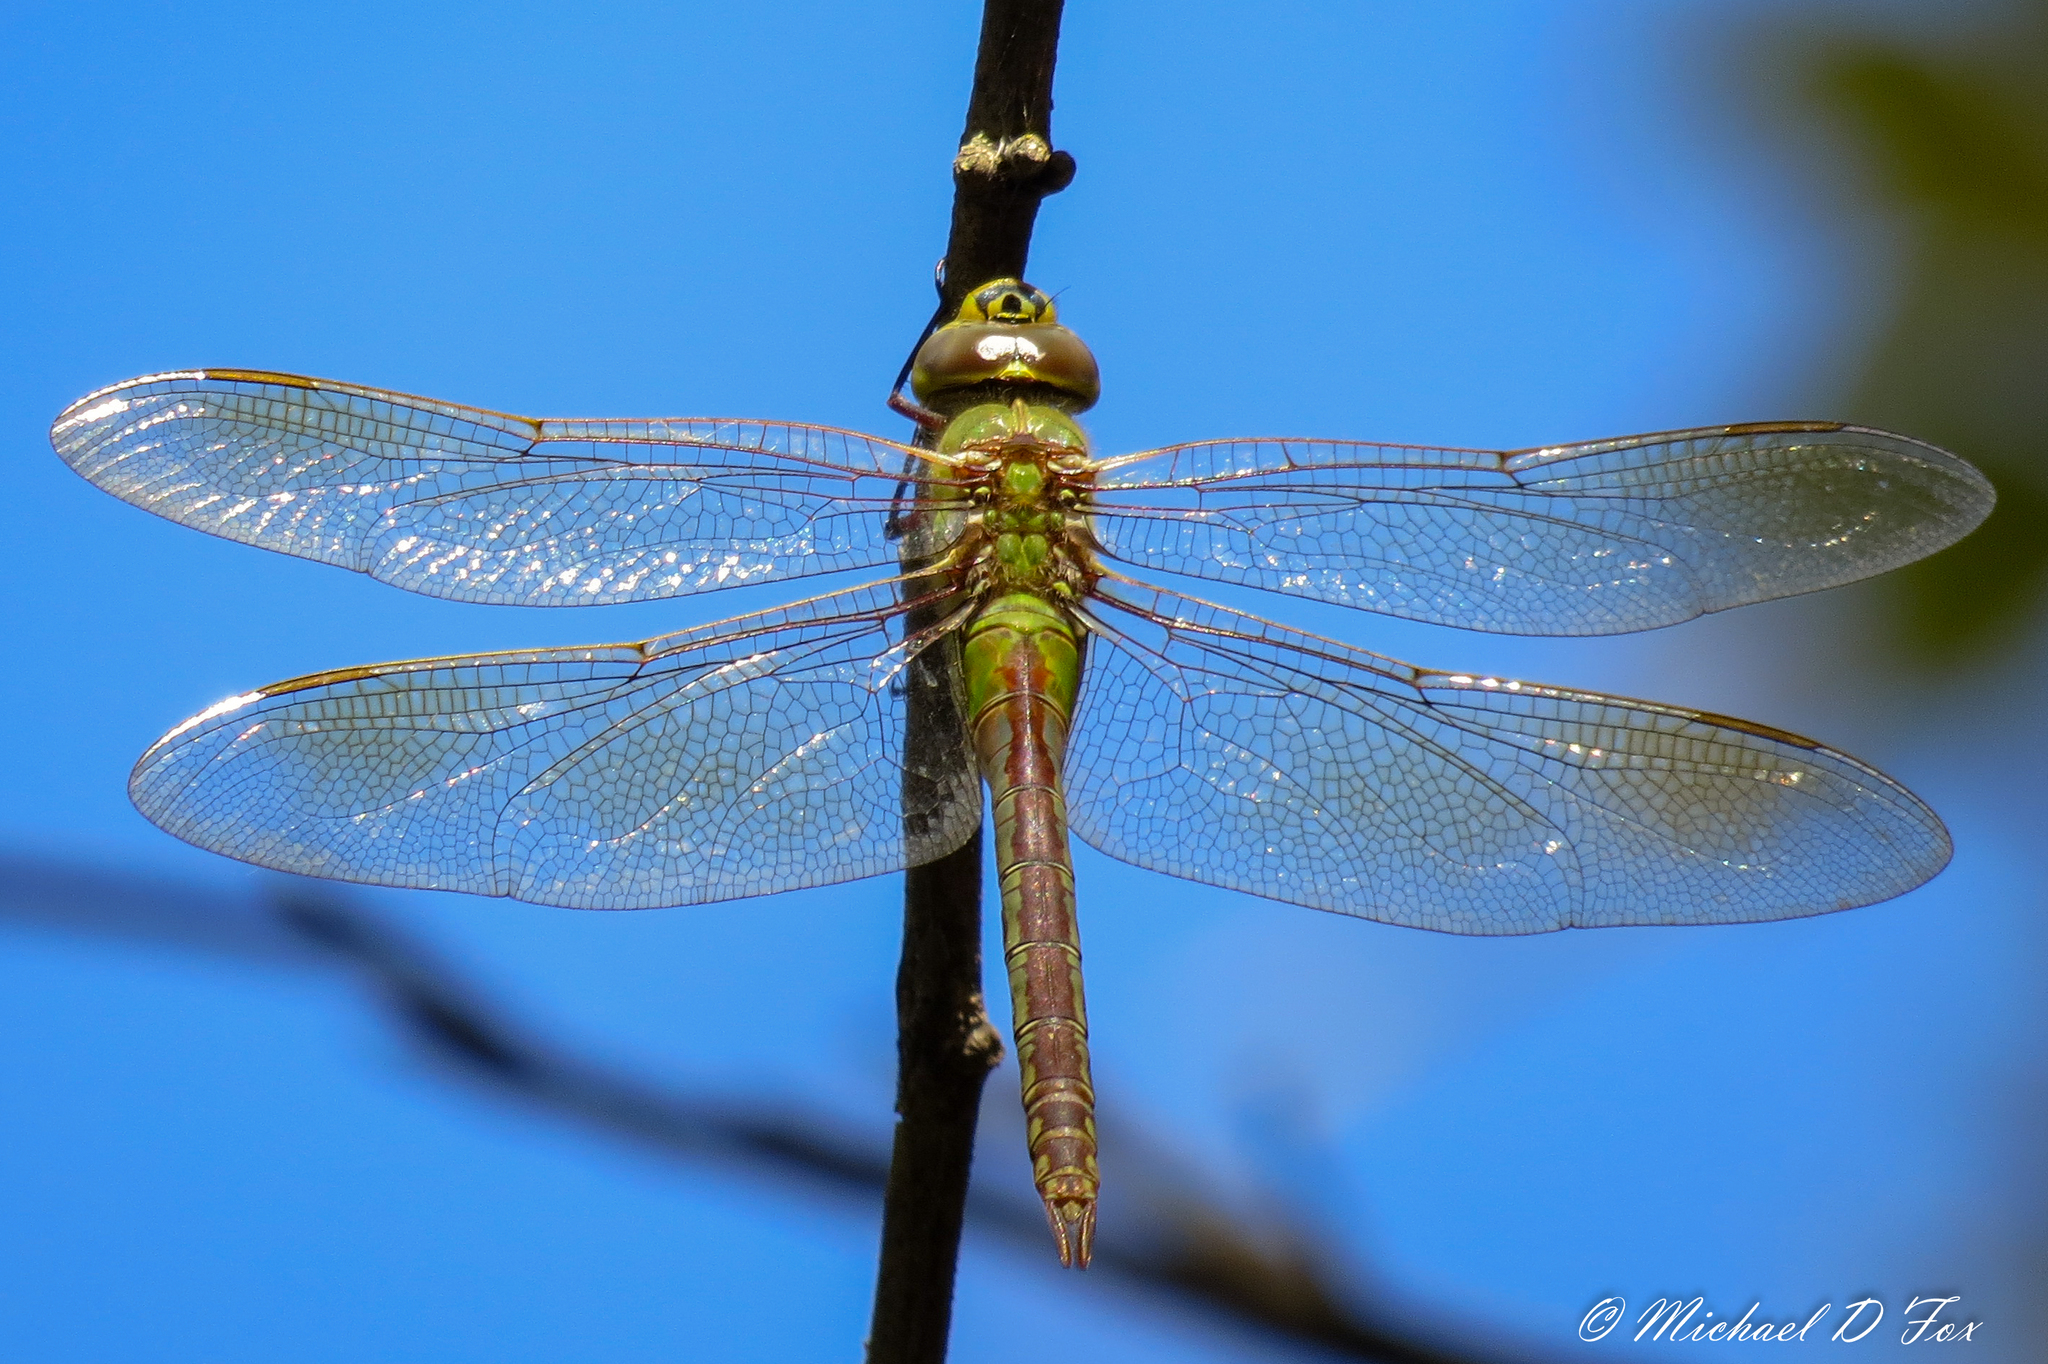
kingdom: Animalia
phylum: Arthropoda
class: Insecta
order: Odonata
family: Aeshnidae
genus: Anax
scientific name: Anax junius
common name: Common green darner
